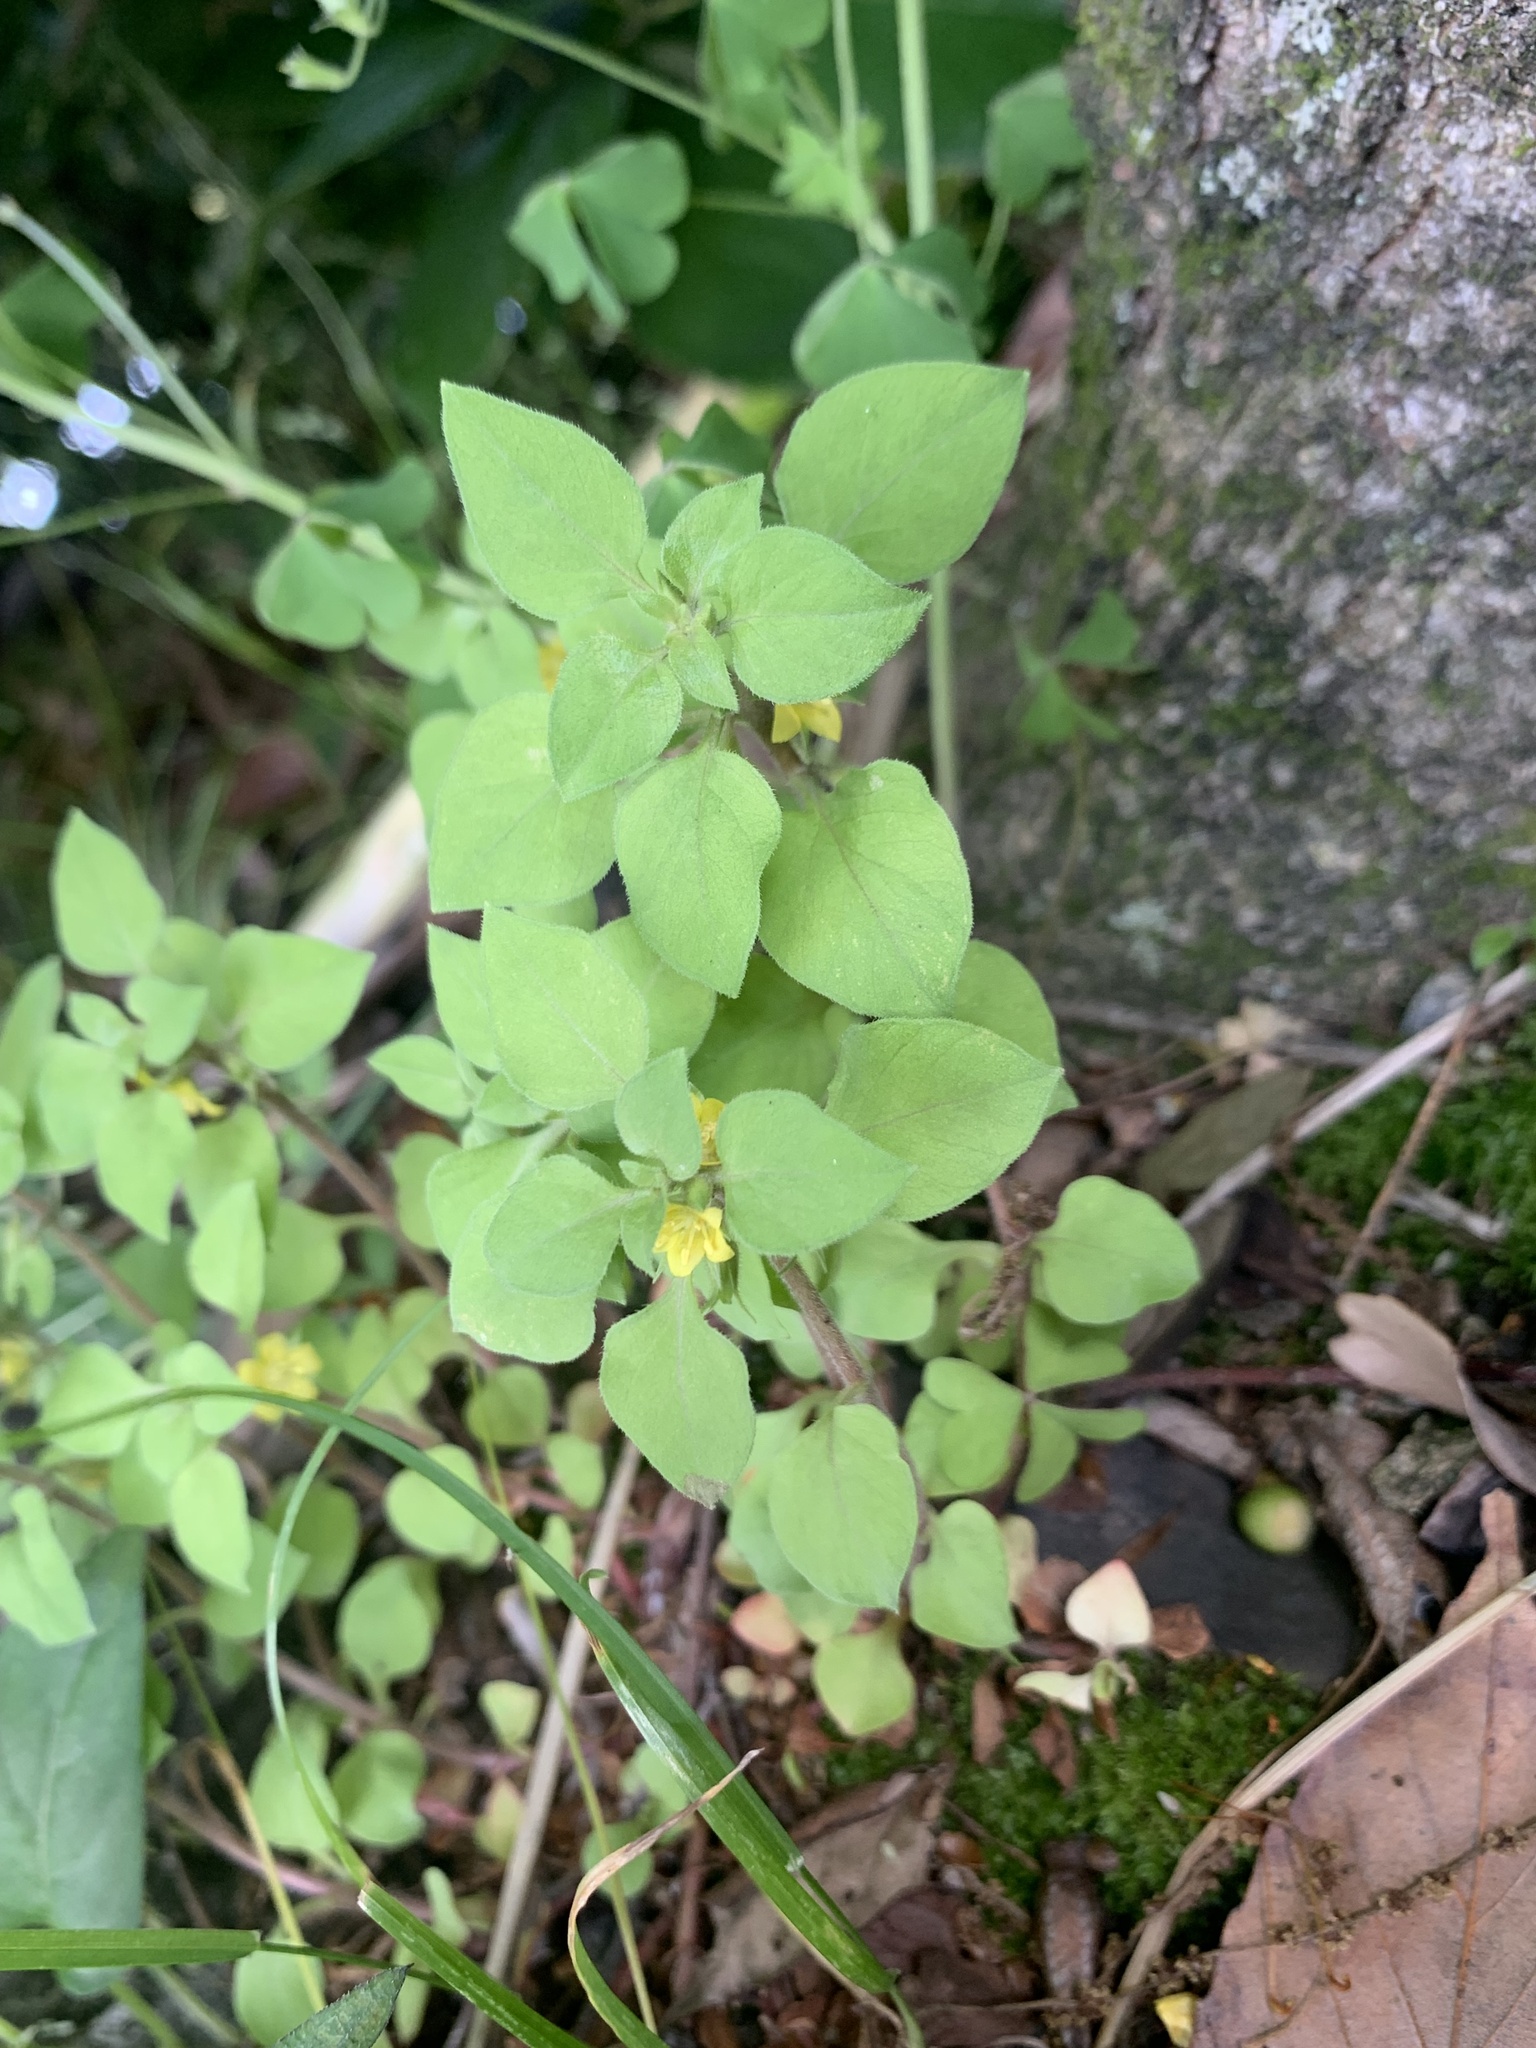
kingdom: Plantae
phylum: Tracheophyta
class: Magnoliopsida
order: Ericales
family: Primulaceae
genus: Lysimachia
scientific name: Lysimachia japonica
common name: Japanese yellow loosestrife
